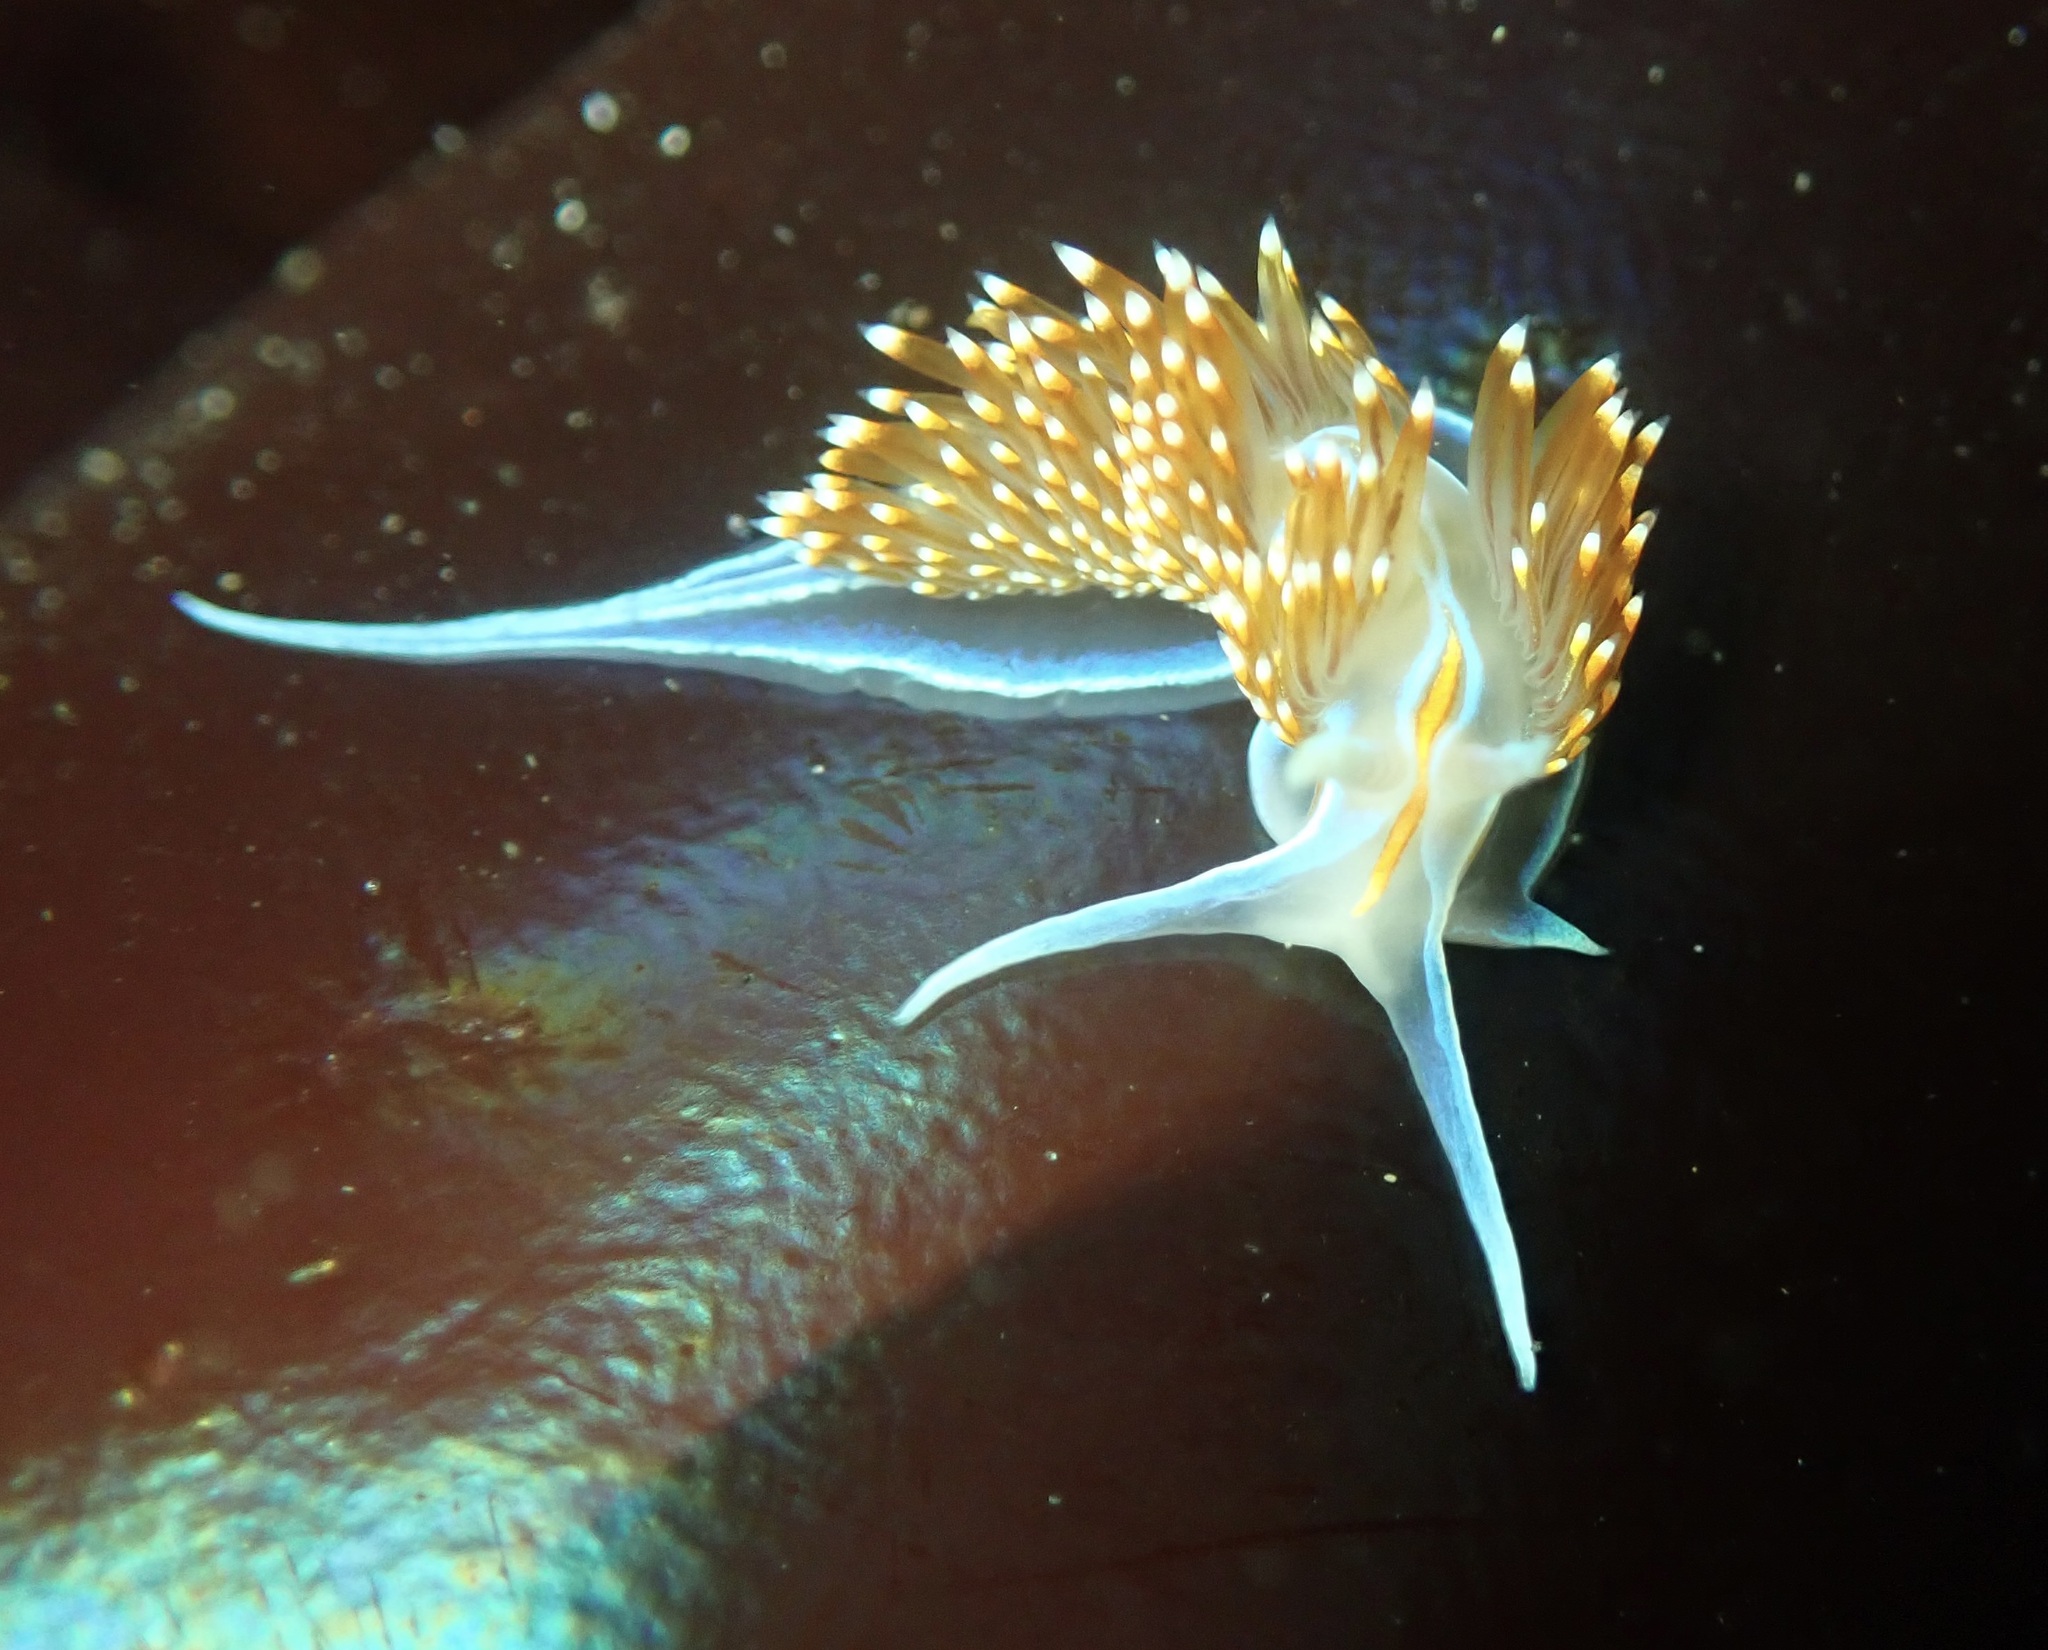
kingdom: Animalia
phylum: Mollusca
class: Gastropoda
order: Nudibranchia
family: Myrrhinidae
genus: Hermissenda
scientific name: Hermissenda opalescens
